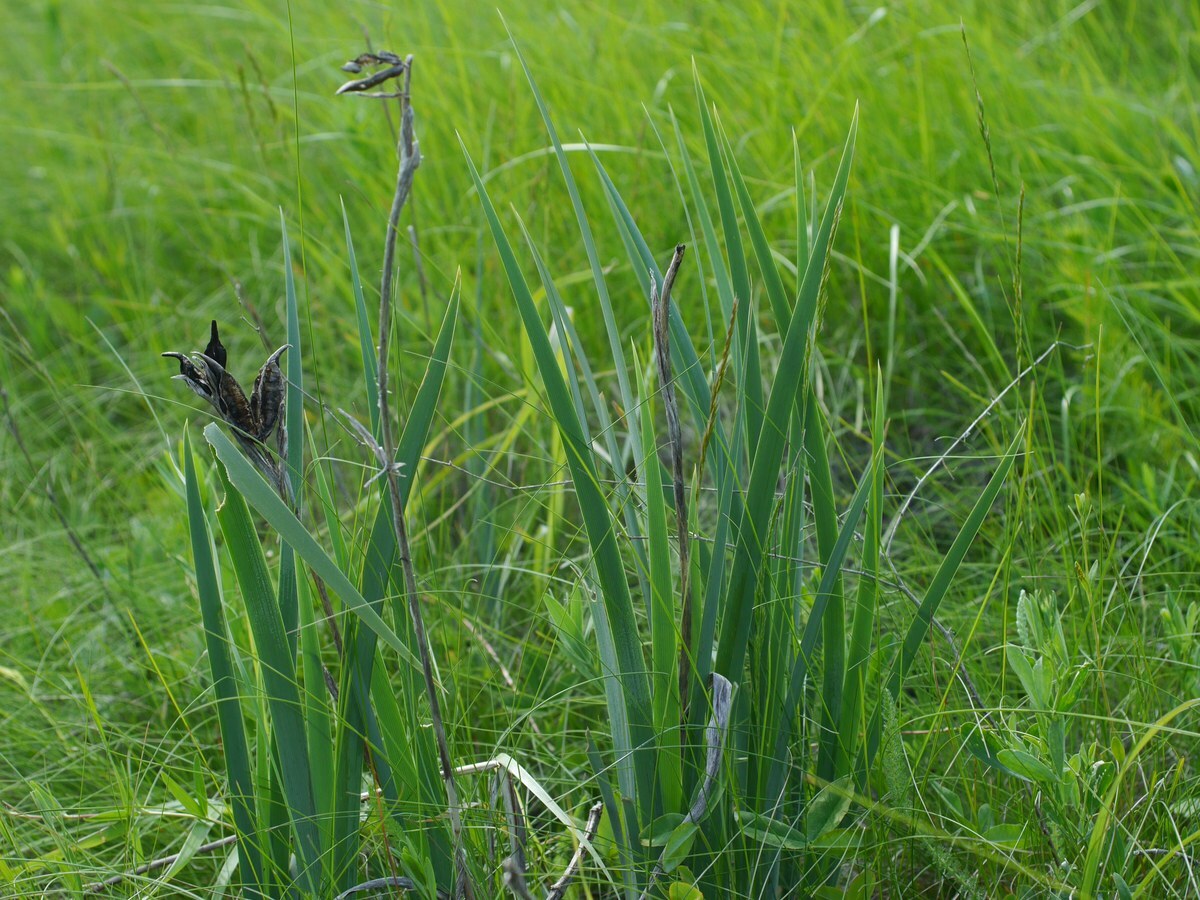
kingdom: Plantae
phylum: Tracheophyta
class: Liliopsida
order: Asparagales
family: Iridaceae
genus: Iris
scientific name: Iris halophila
